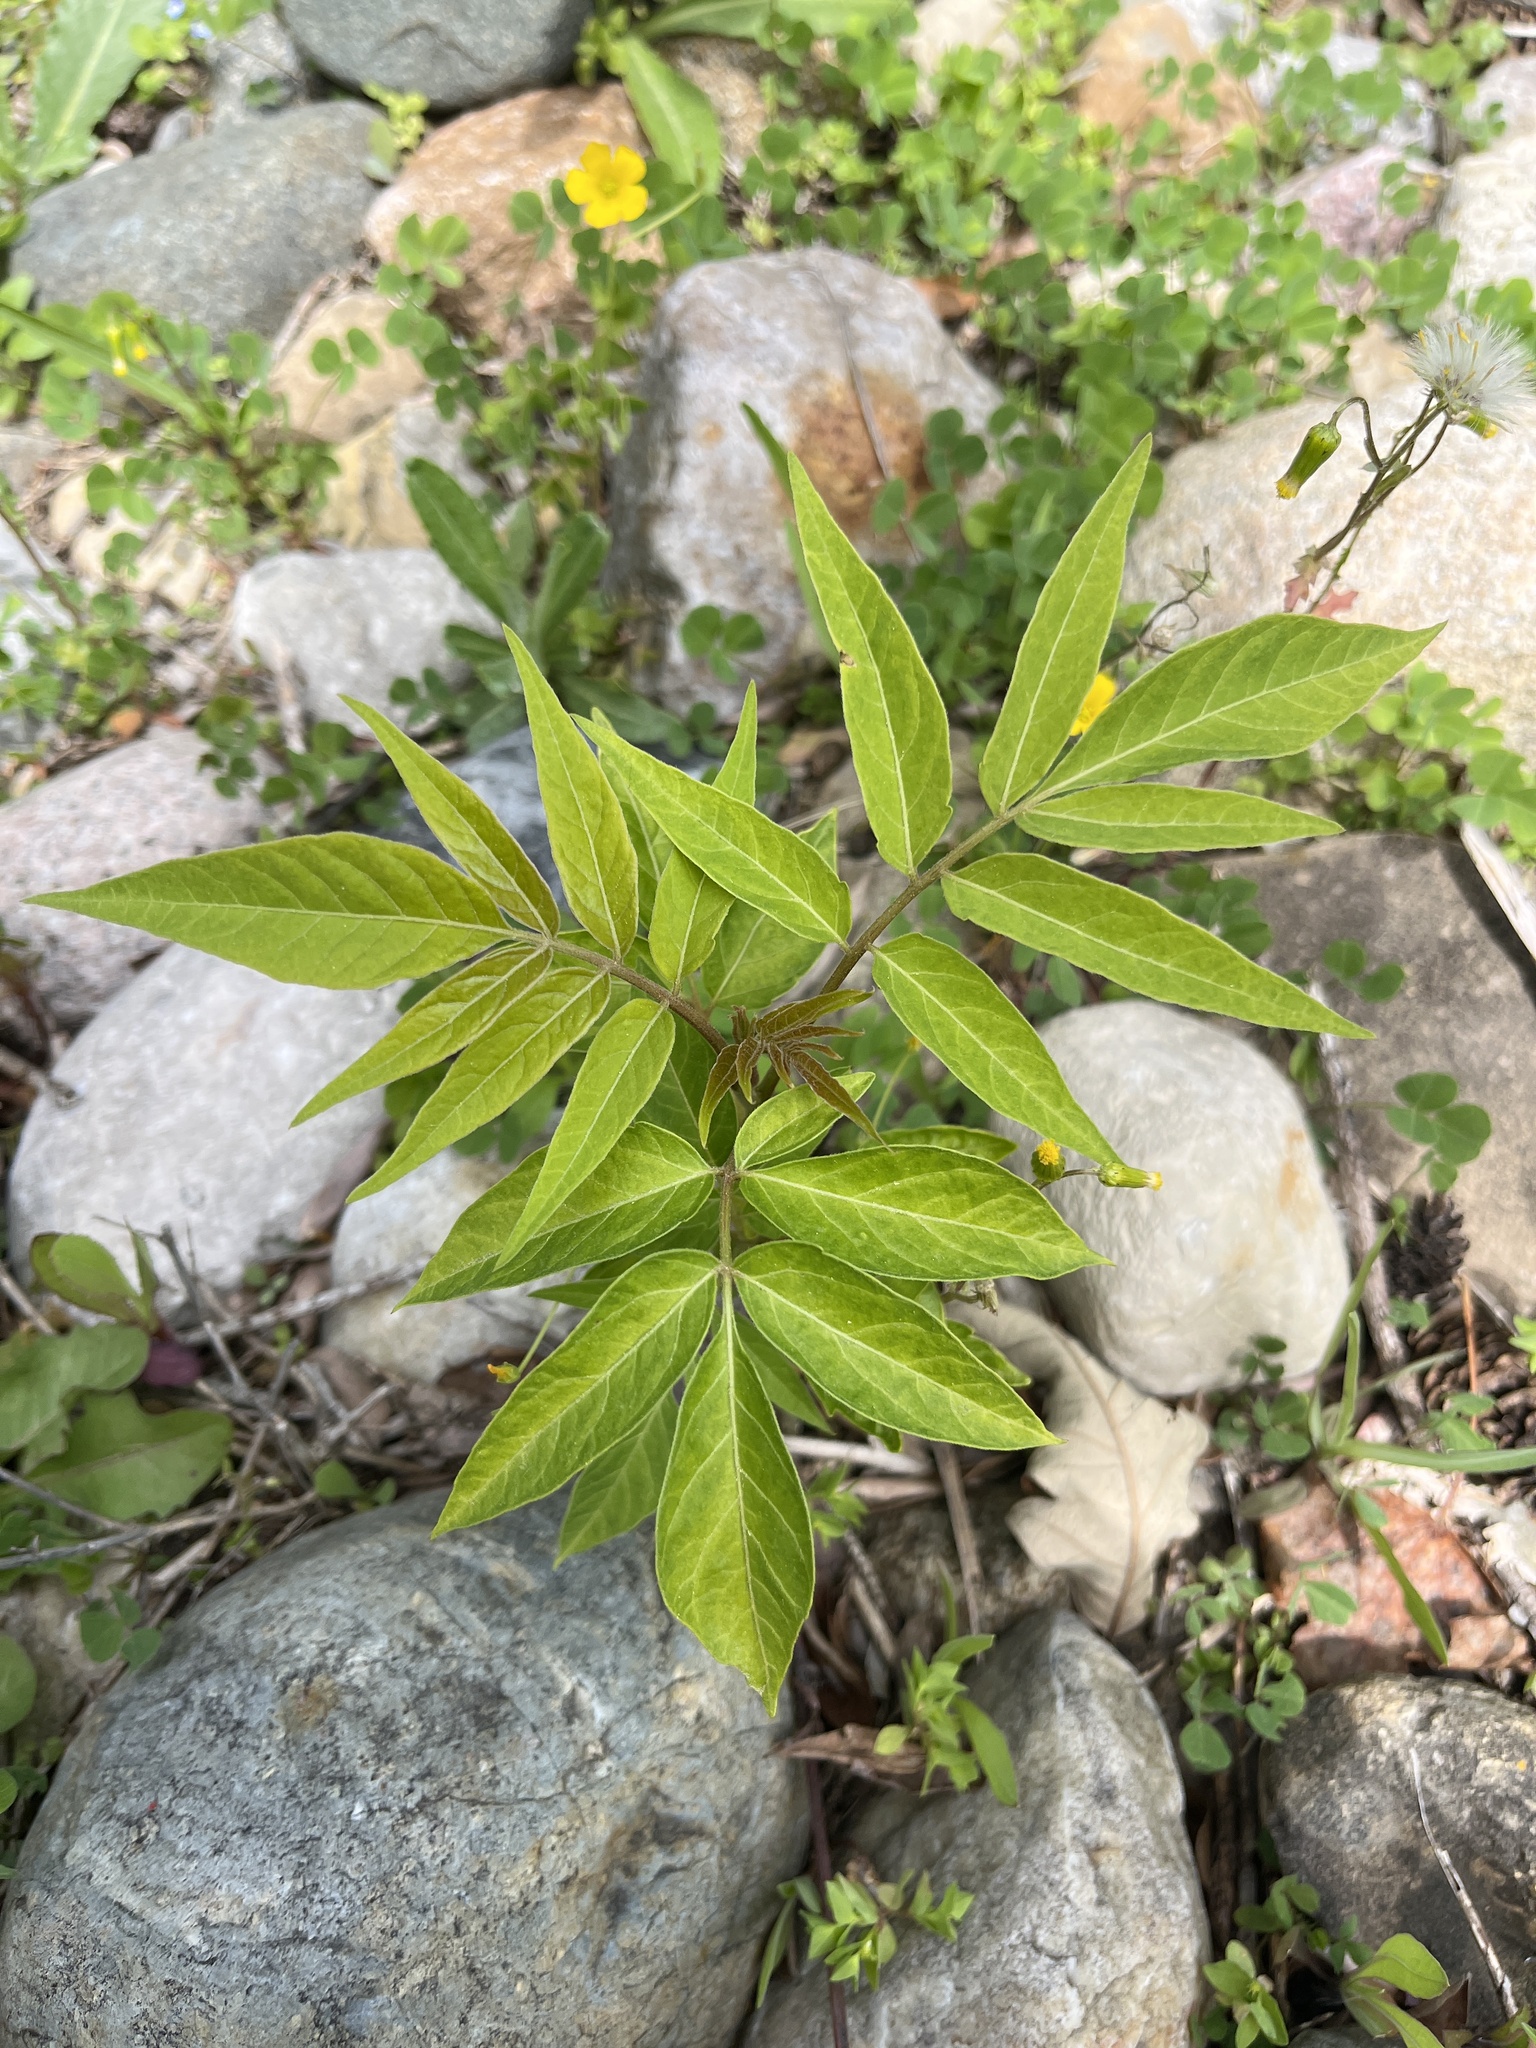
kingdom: Plantae
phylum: Tracheophyta
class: Magnoliopsida
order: Sapindales
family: Simaroubaceae
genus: Ailanthus
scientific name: Ailanthus altissima
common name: Tree-of-heaven
